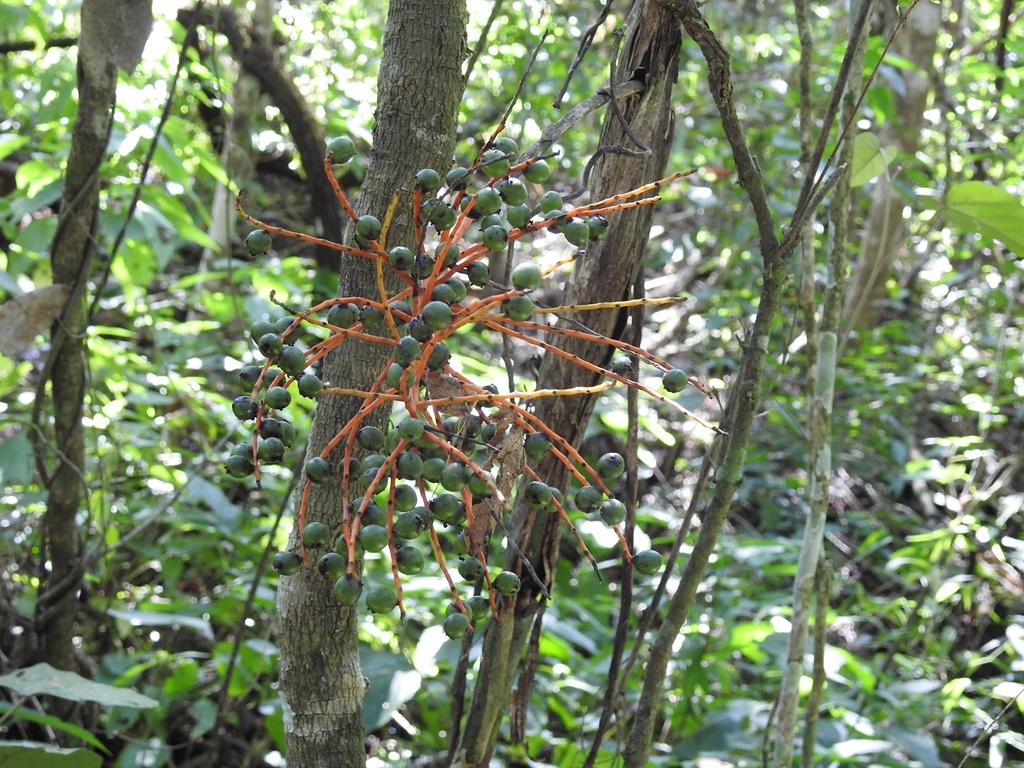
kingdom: Plantae
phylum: Tracheophyta
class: Liliopsida
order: Arecales
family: Arecaceae
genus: Chamaedorea
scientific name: Chamaedorea glaucifolia
